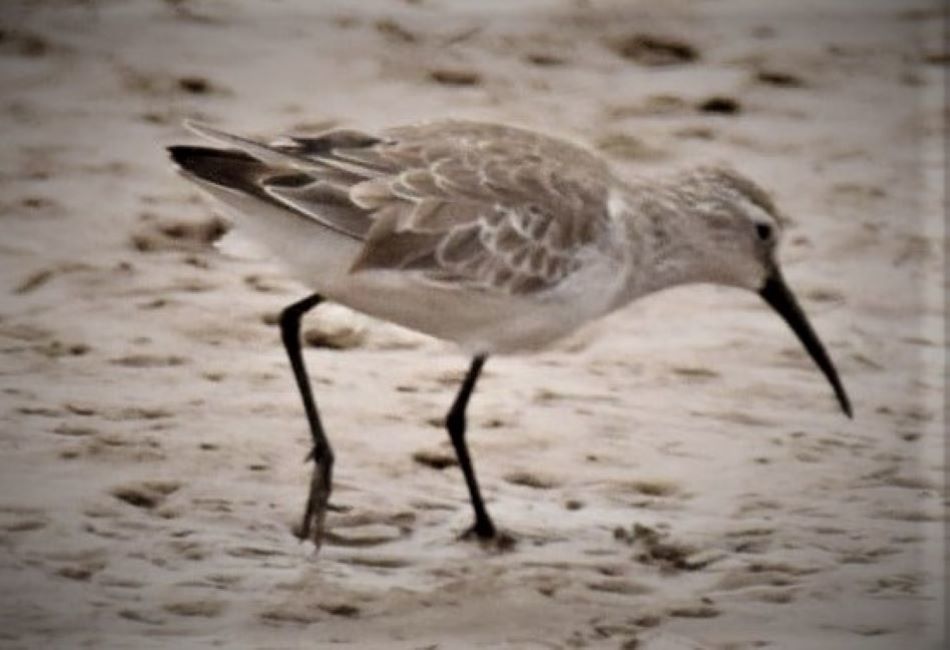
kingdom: Animalia
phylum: Chordata
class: Aves
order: Charadriiformes
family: Scolopacidae
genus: Calidris
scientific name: Calidris ferruginea
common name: Curlew sandpiper
